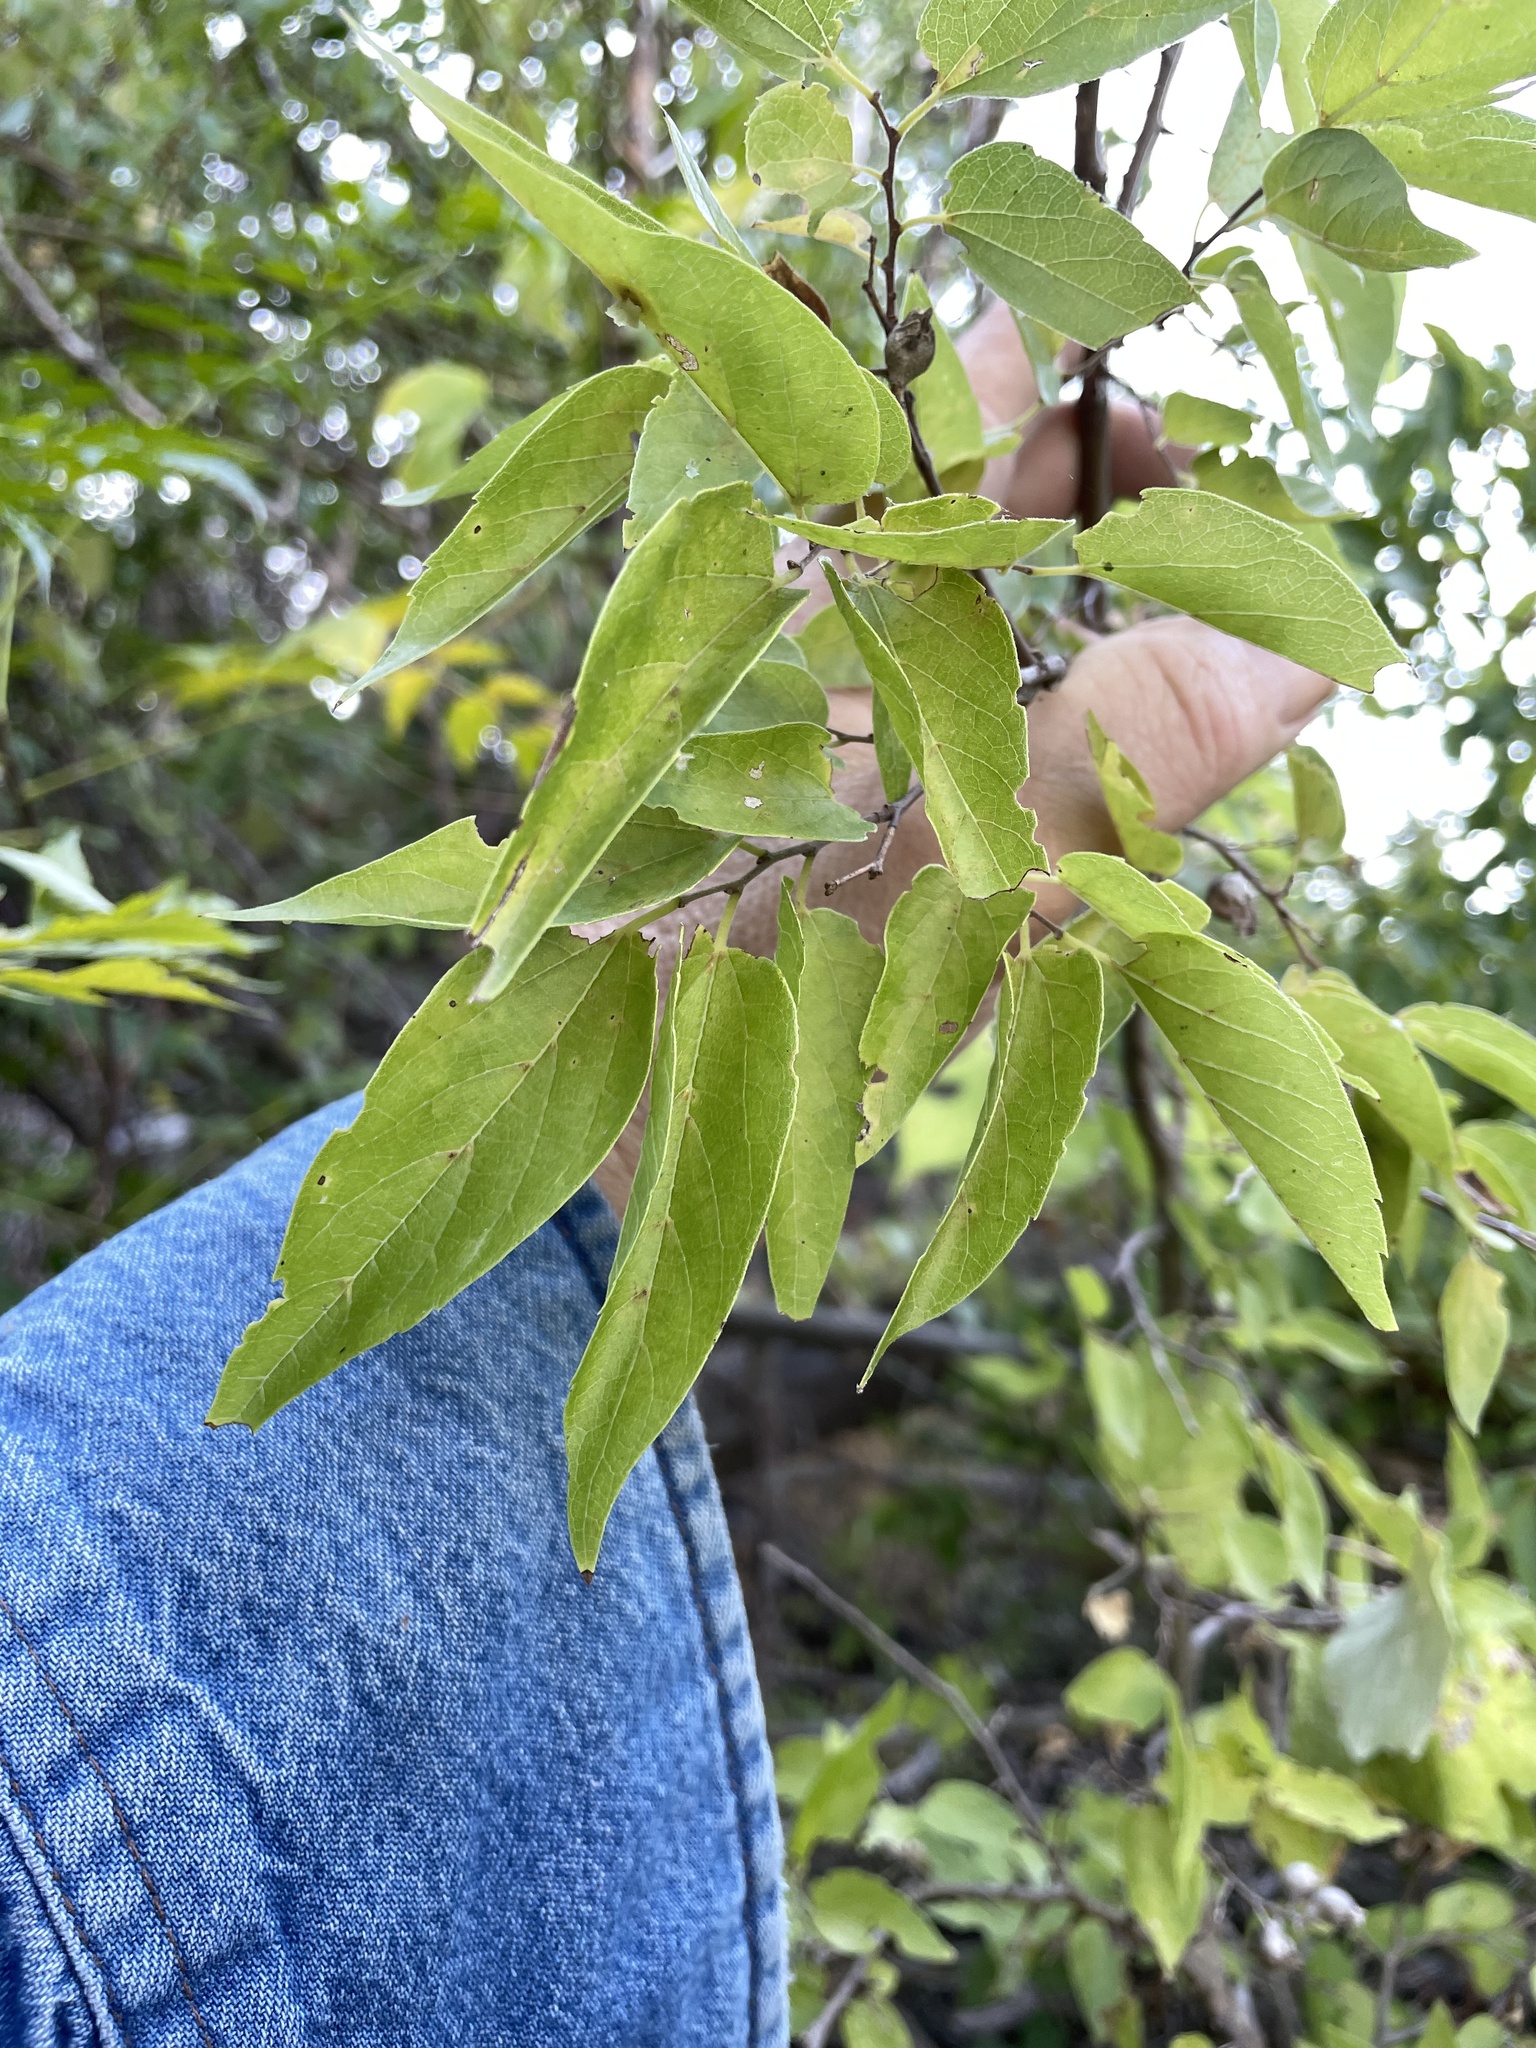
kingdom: Plantae
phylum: Tracheophyta
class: Magnoliopsida
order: Rosales
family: Cannabaceae
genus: Celtis
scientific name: Celtis laevigata
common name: Sugarberry
